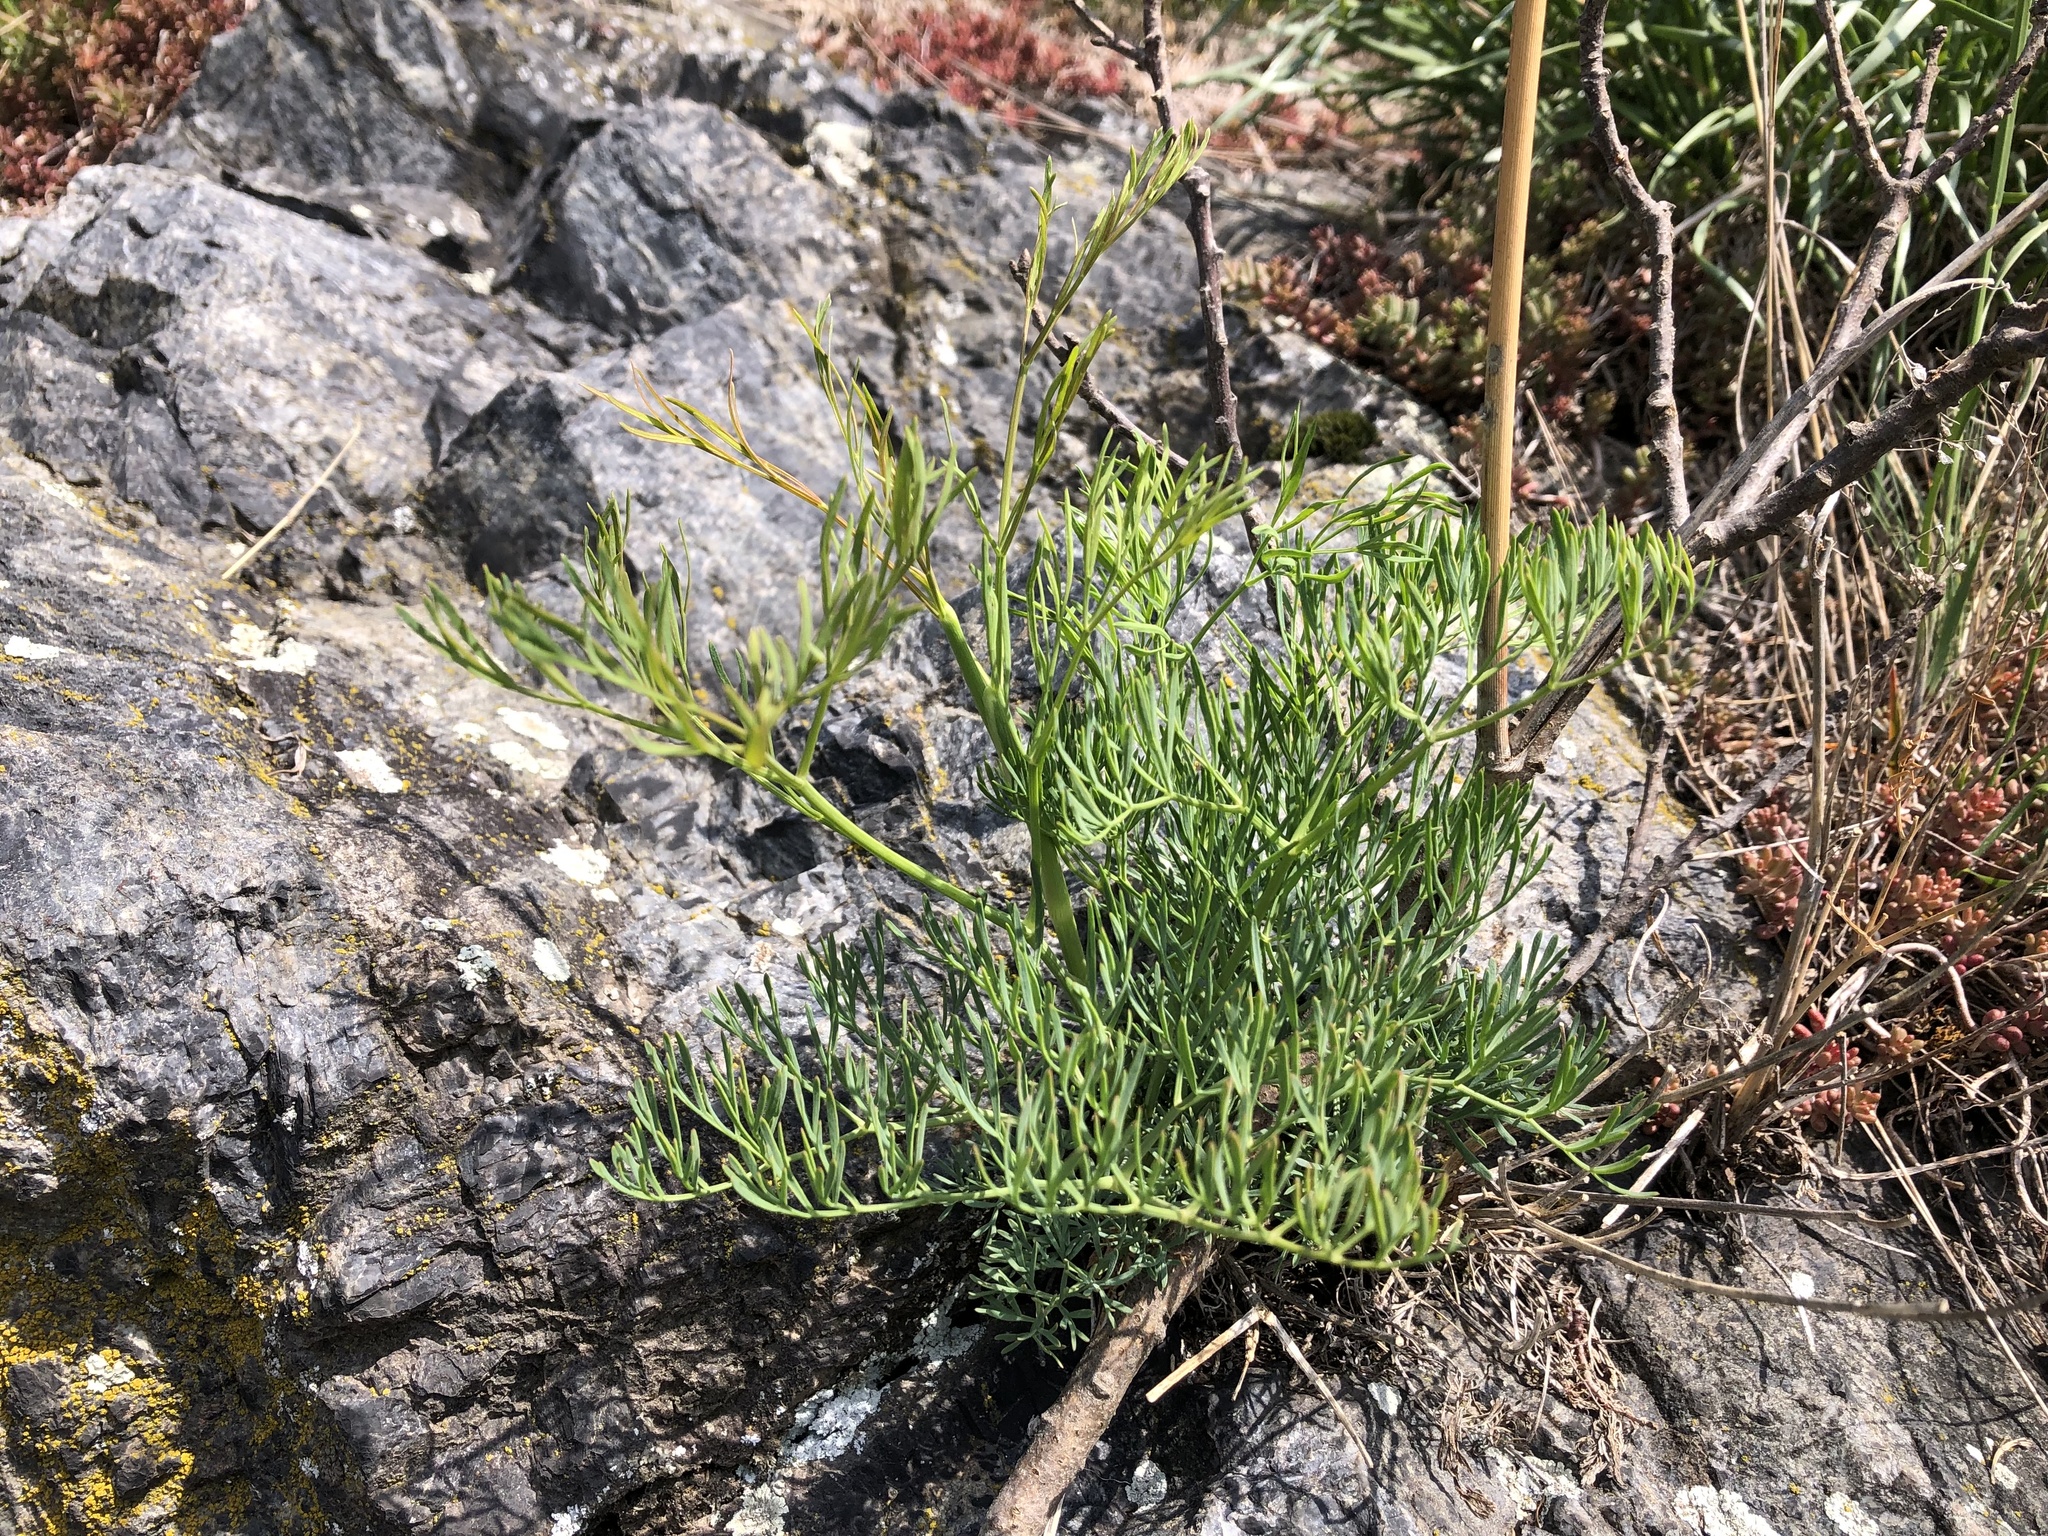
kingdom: Plantae
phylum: Tracheophyta
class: Magnoliopsida
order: Apiales
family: Apiaceae
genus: Seseli
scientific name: Seseli osseum
